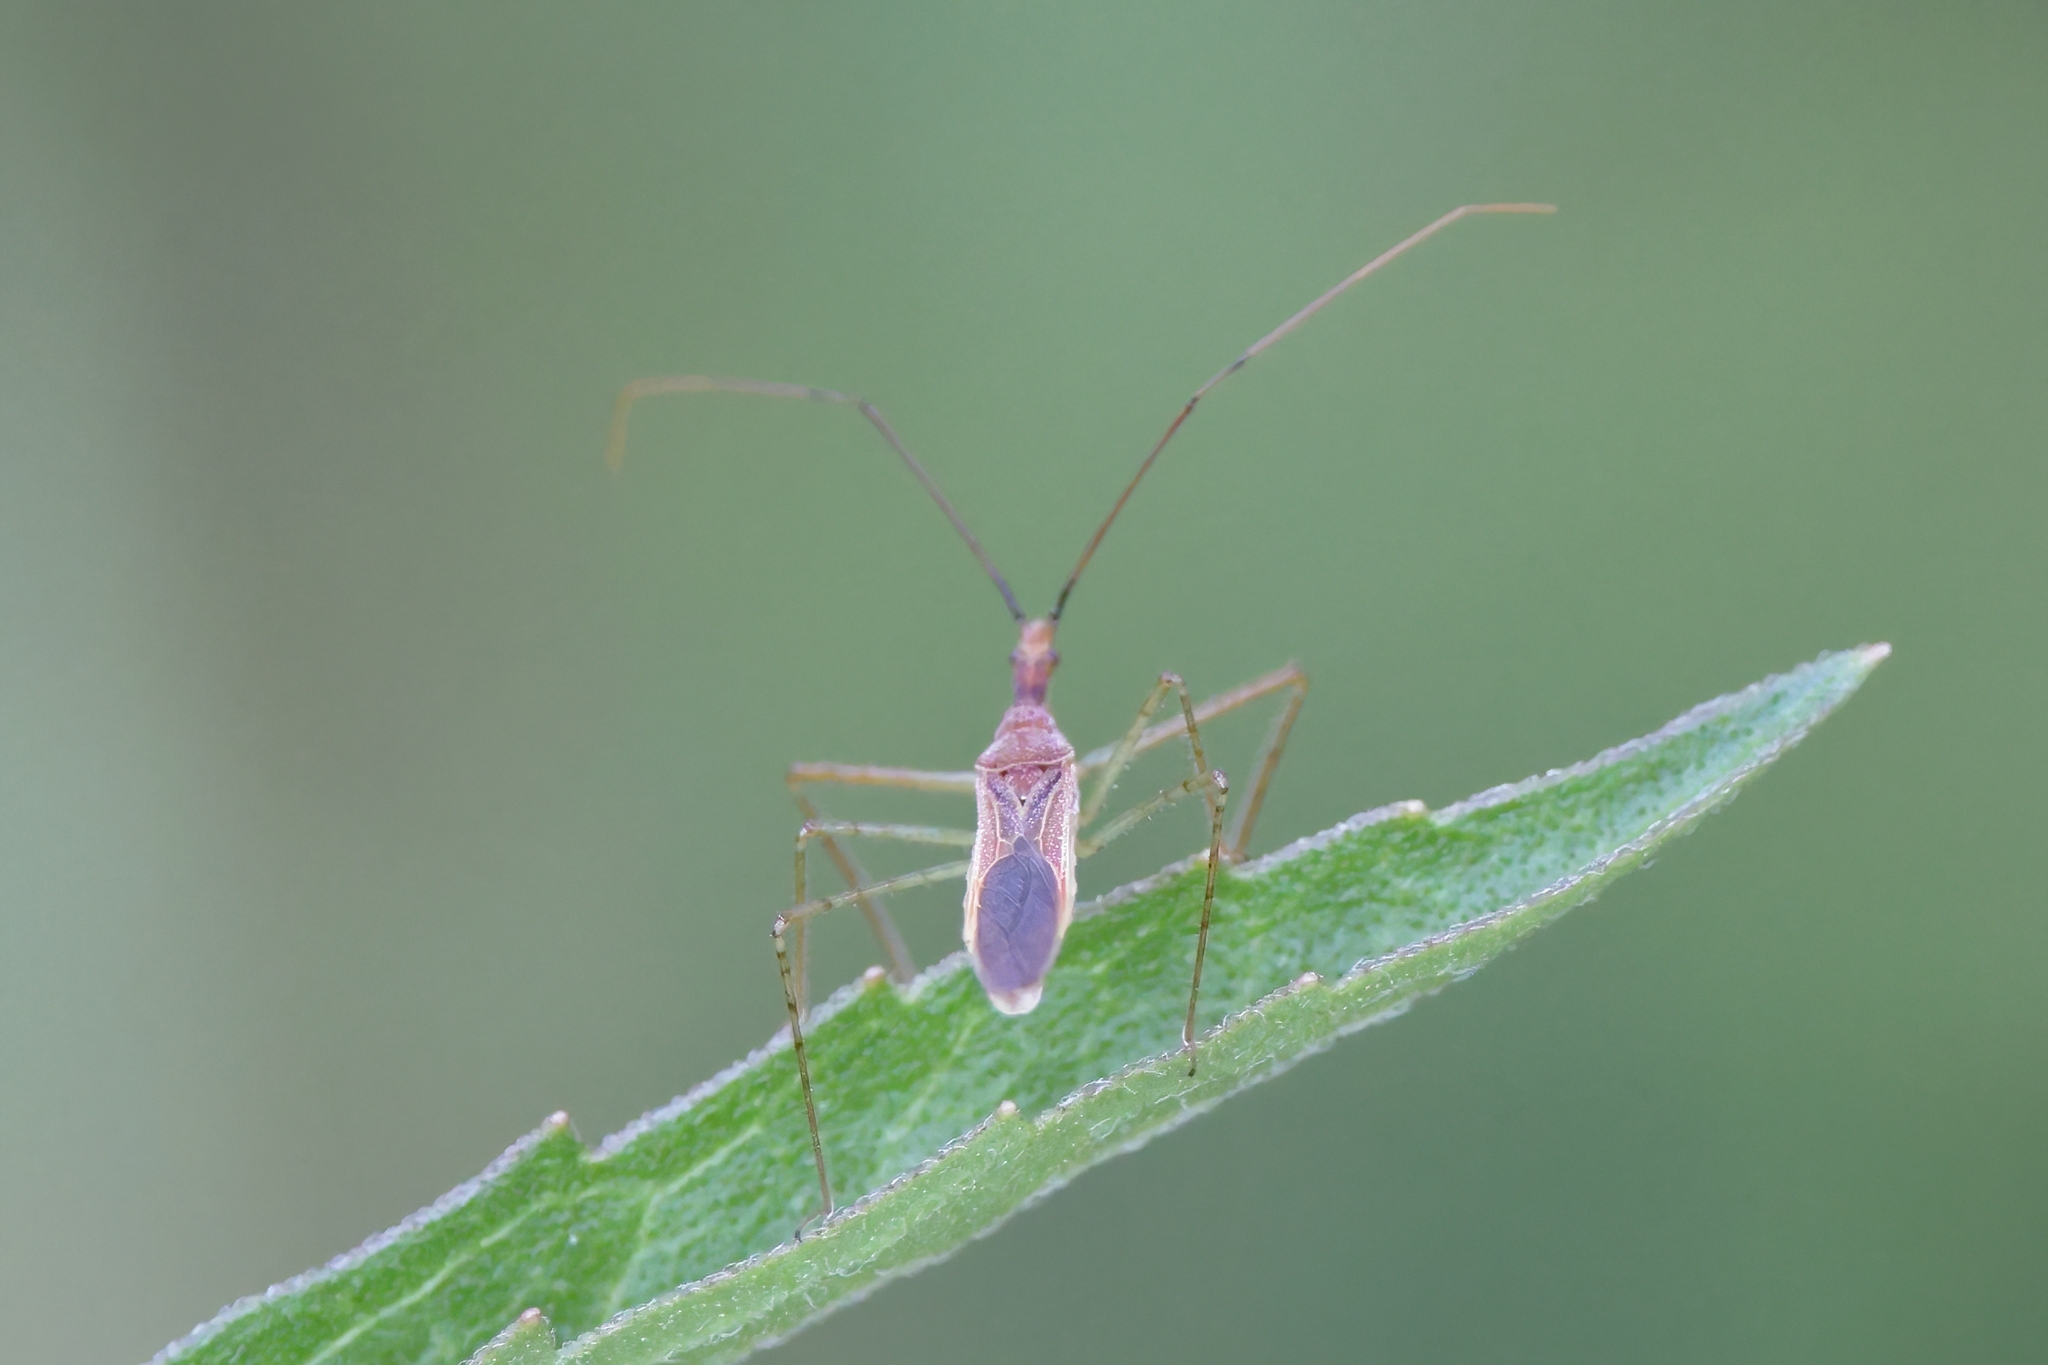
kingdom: Animalia
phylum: Arthropoda
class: Insecta
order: Hemiptera
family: Reduviidae
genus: Zelus
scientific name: Zelus cervicalis
